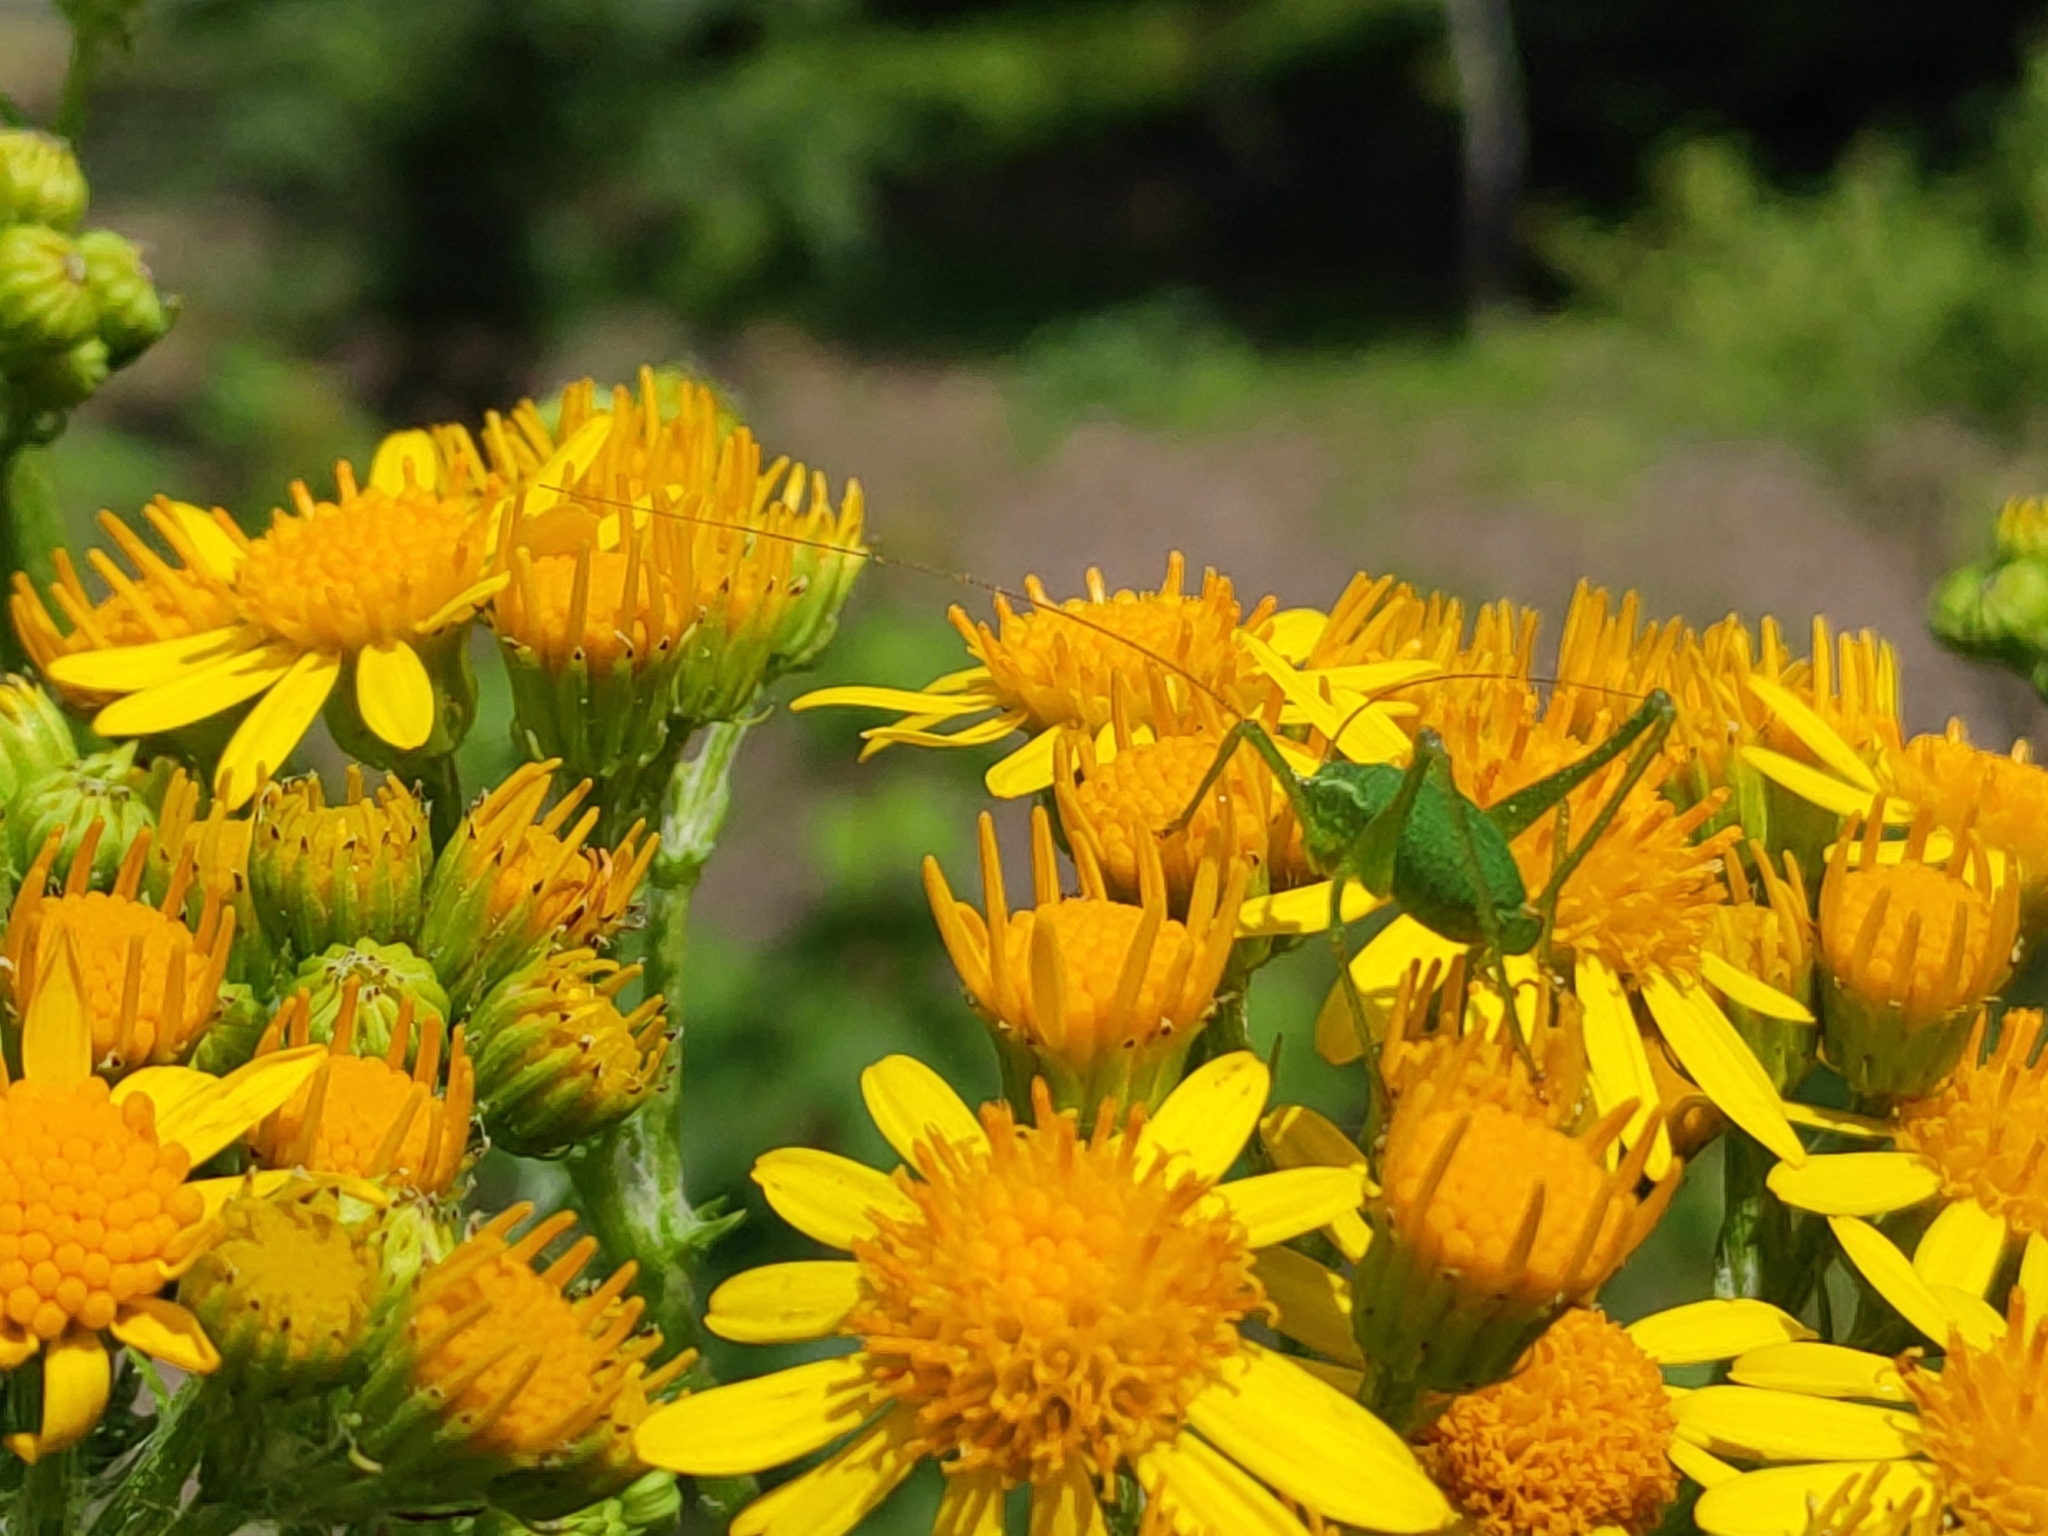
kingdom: Animalia
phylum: Arthropoda
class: Insecta
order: Orthoptera
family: Tettigoniidae
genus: Leptophyes
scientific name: Leptophyes punctatissima
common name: Speckled bush-cricket
